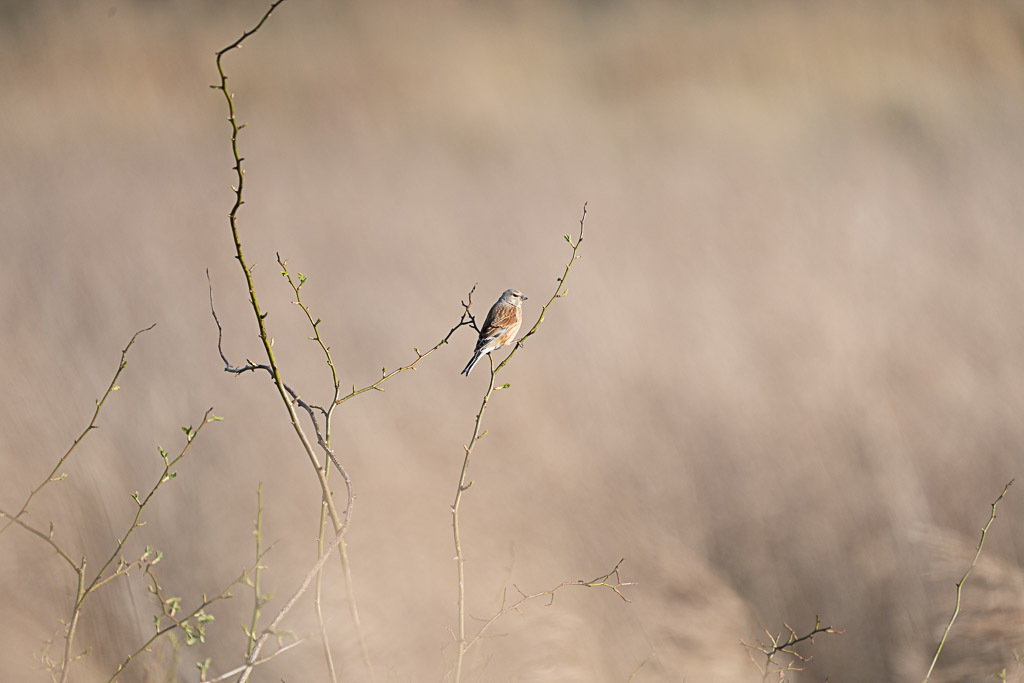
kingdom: Animalia
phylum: Chordata
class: Aves
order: Passeriformes
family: Fringillidae
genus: Linaria
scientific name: Linaria cannabina
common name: Common linnet
